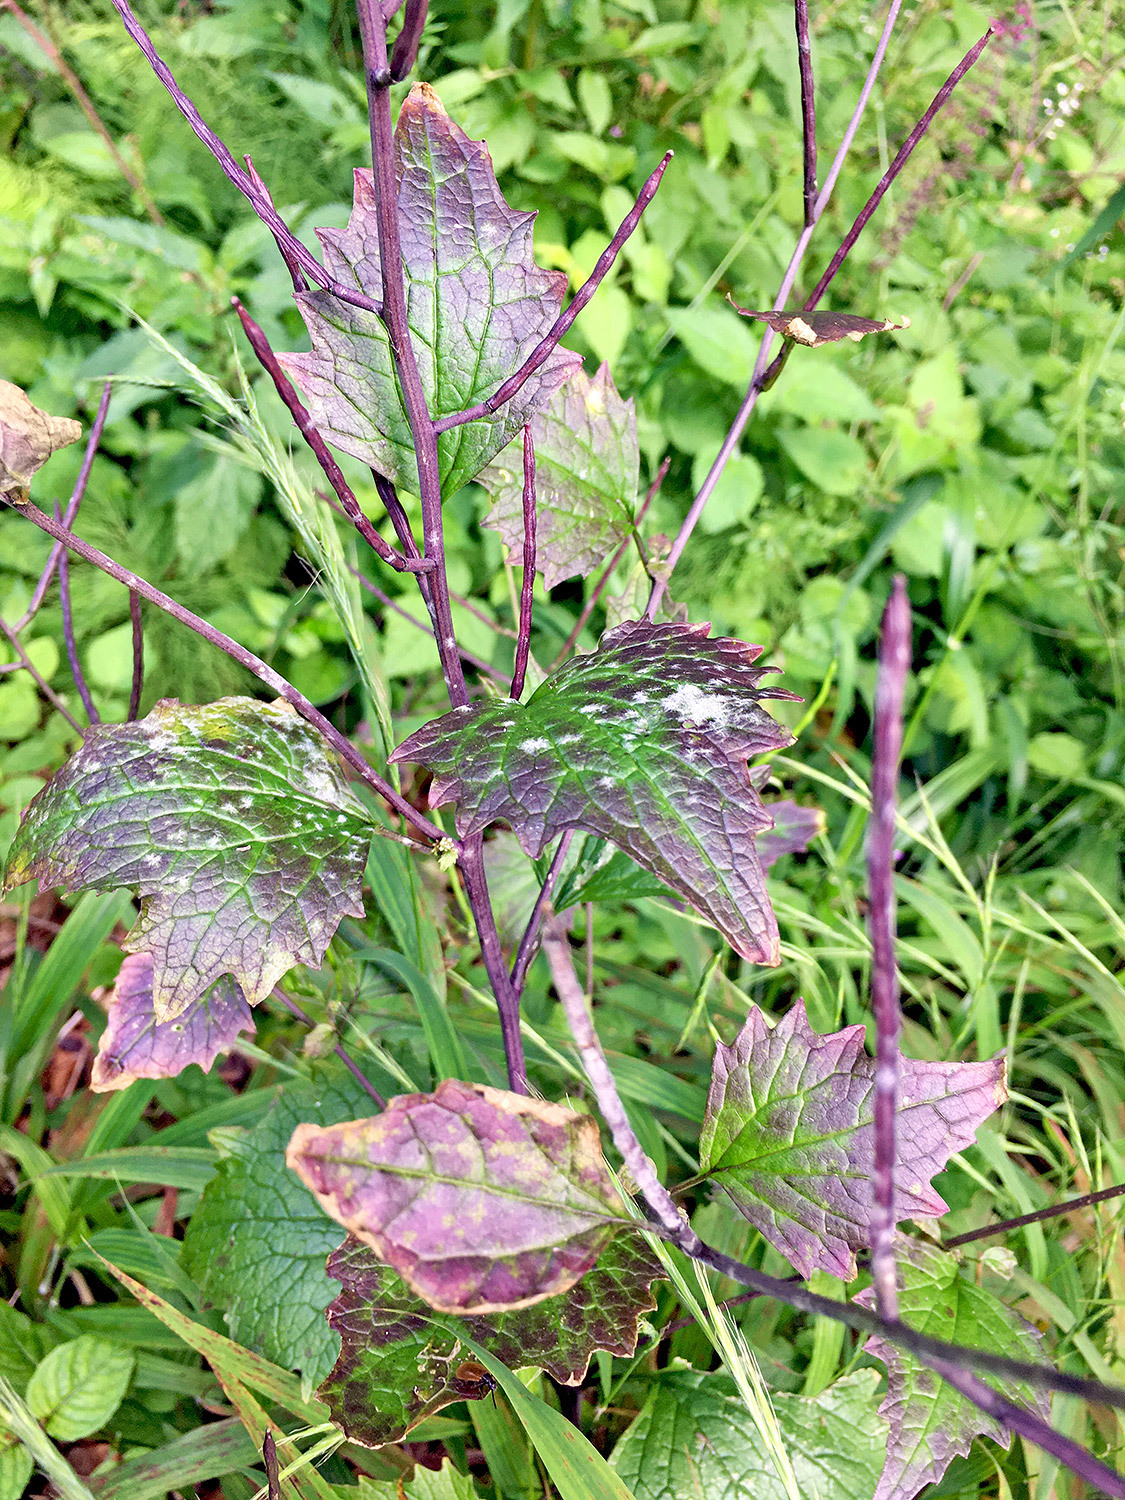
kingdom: Plantae
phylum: Tracheophyta
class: Magnoliopsida
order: Brassicales
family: Brassicaceae
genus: Alliaria
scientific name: Alliaria petiolata
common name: Garlic mustard
